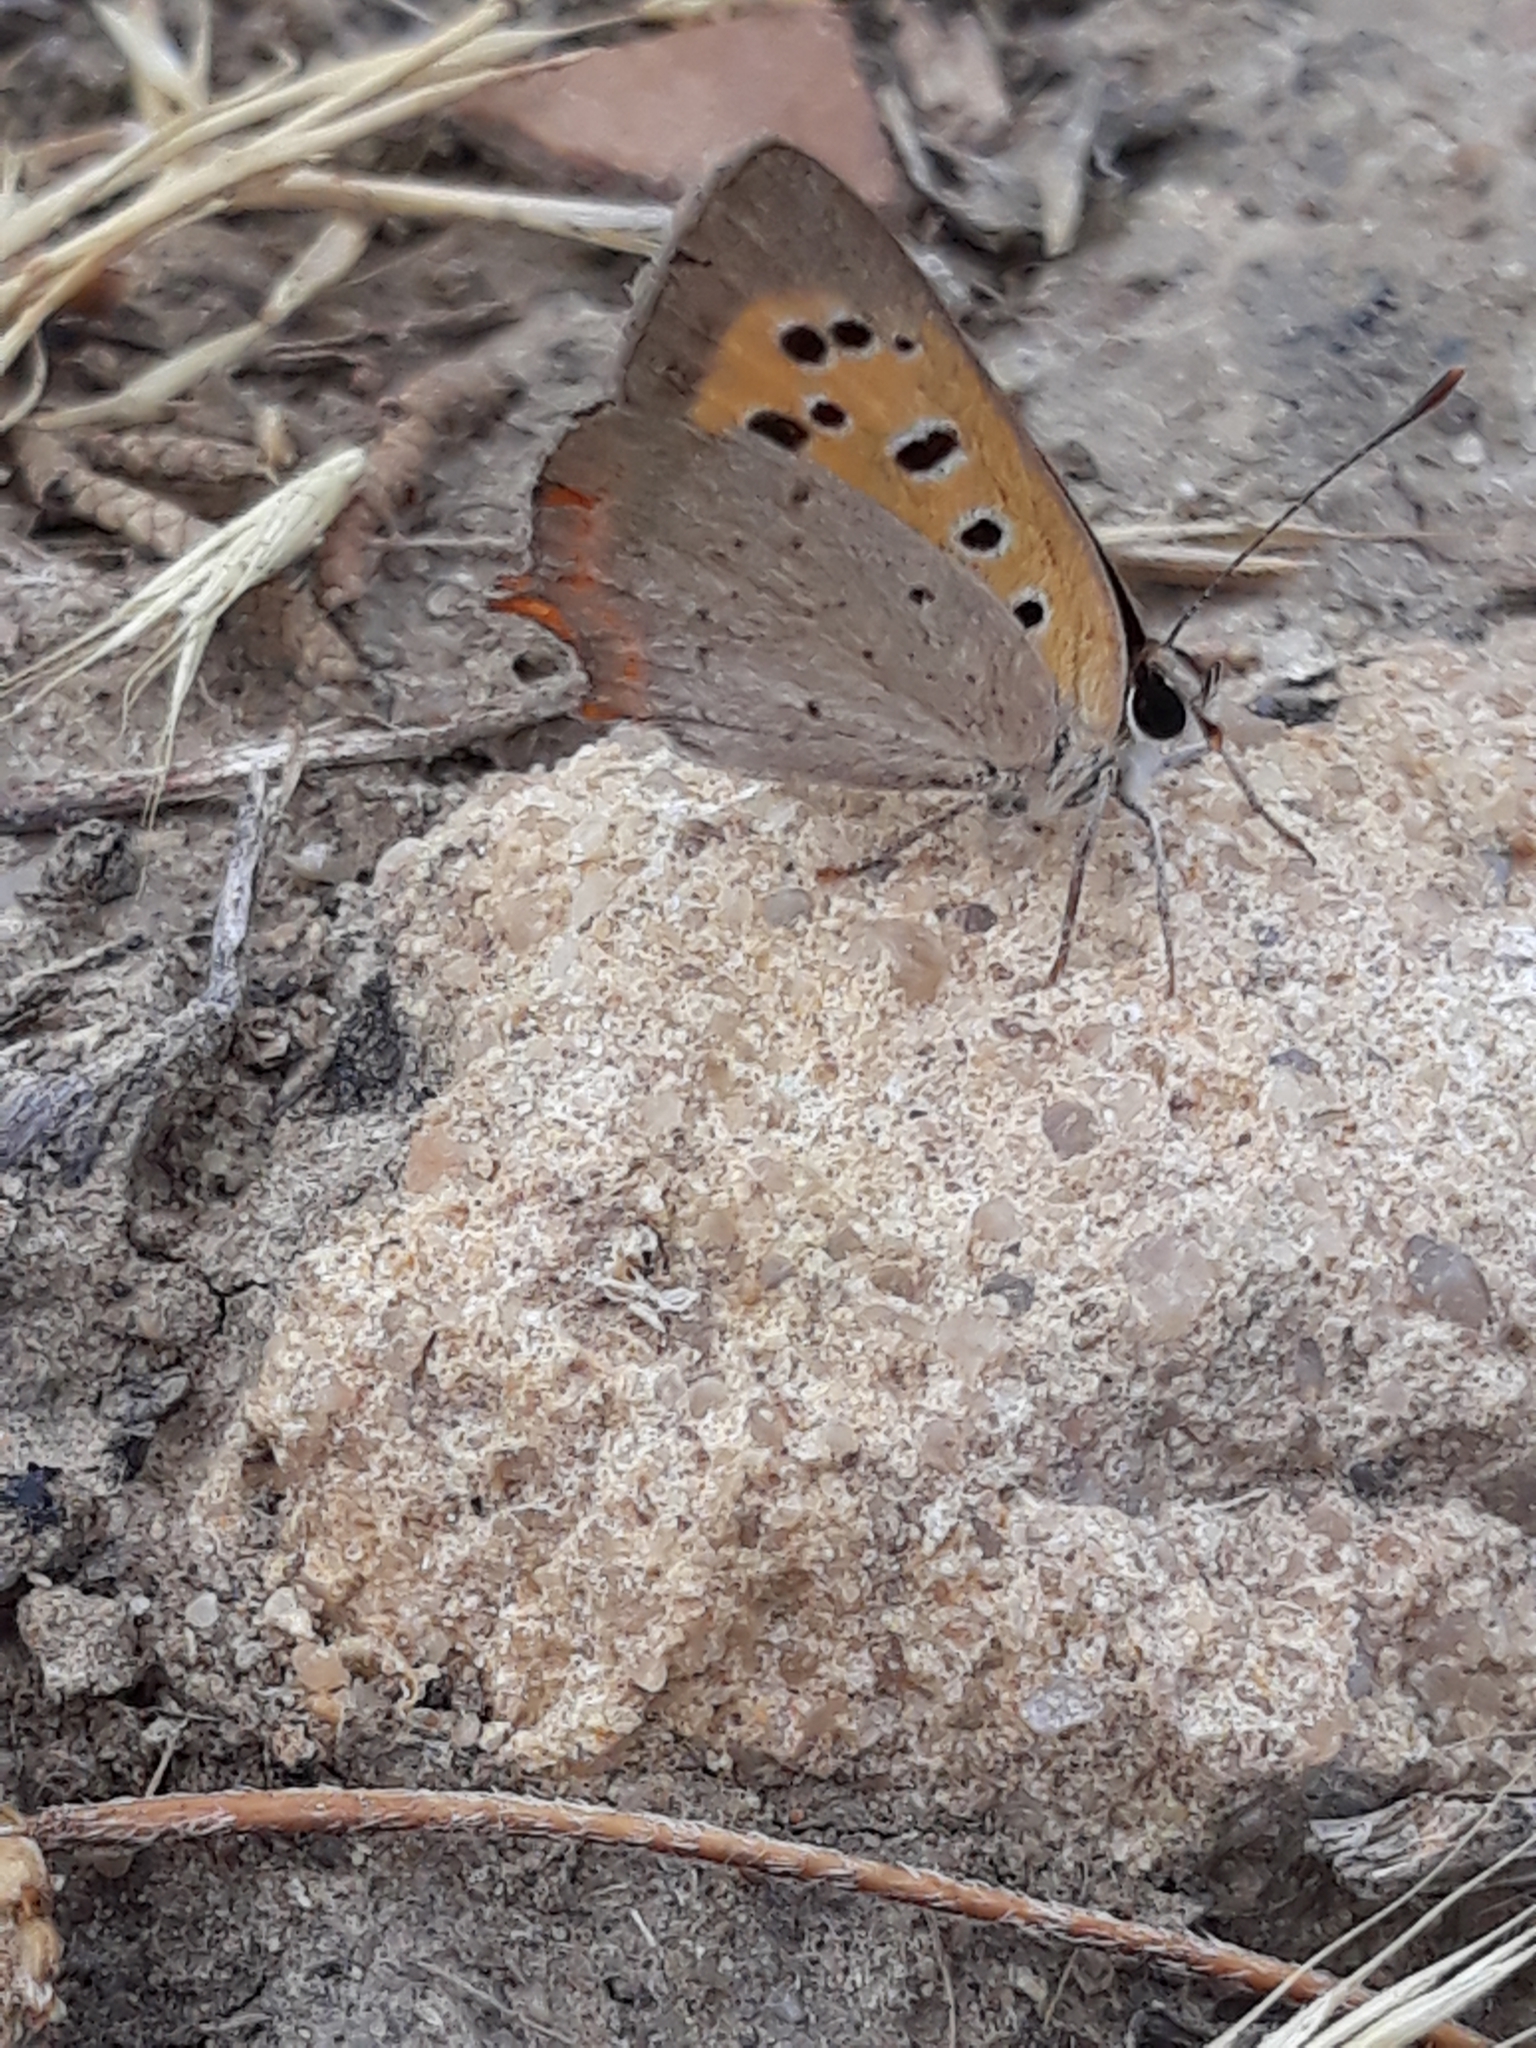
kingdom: Animalia
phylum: Arthropoda
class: Insecta
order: Lepidoptera
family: Lycaenidae
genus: Lycaena
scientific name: Lycaena phlaeas
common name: Small copper
